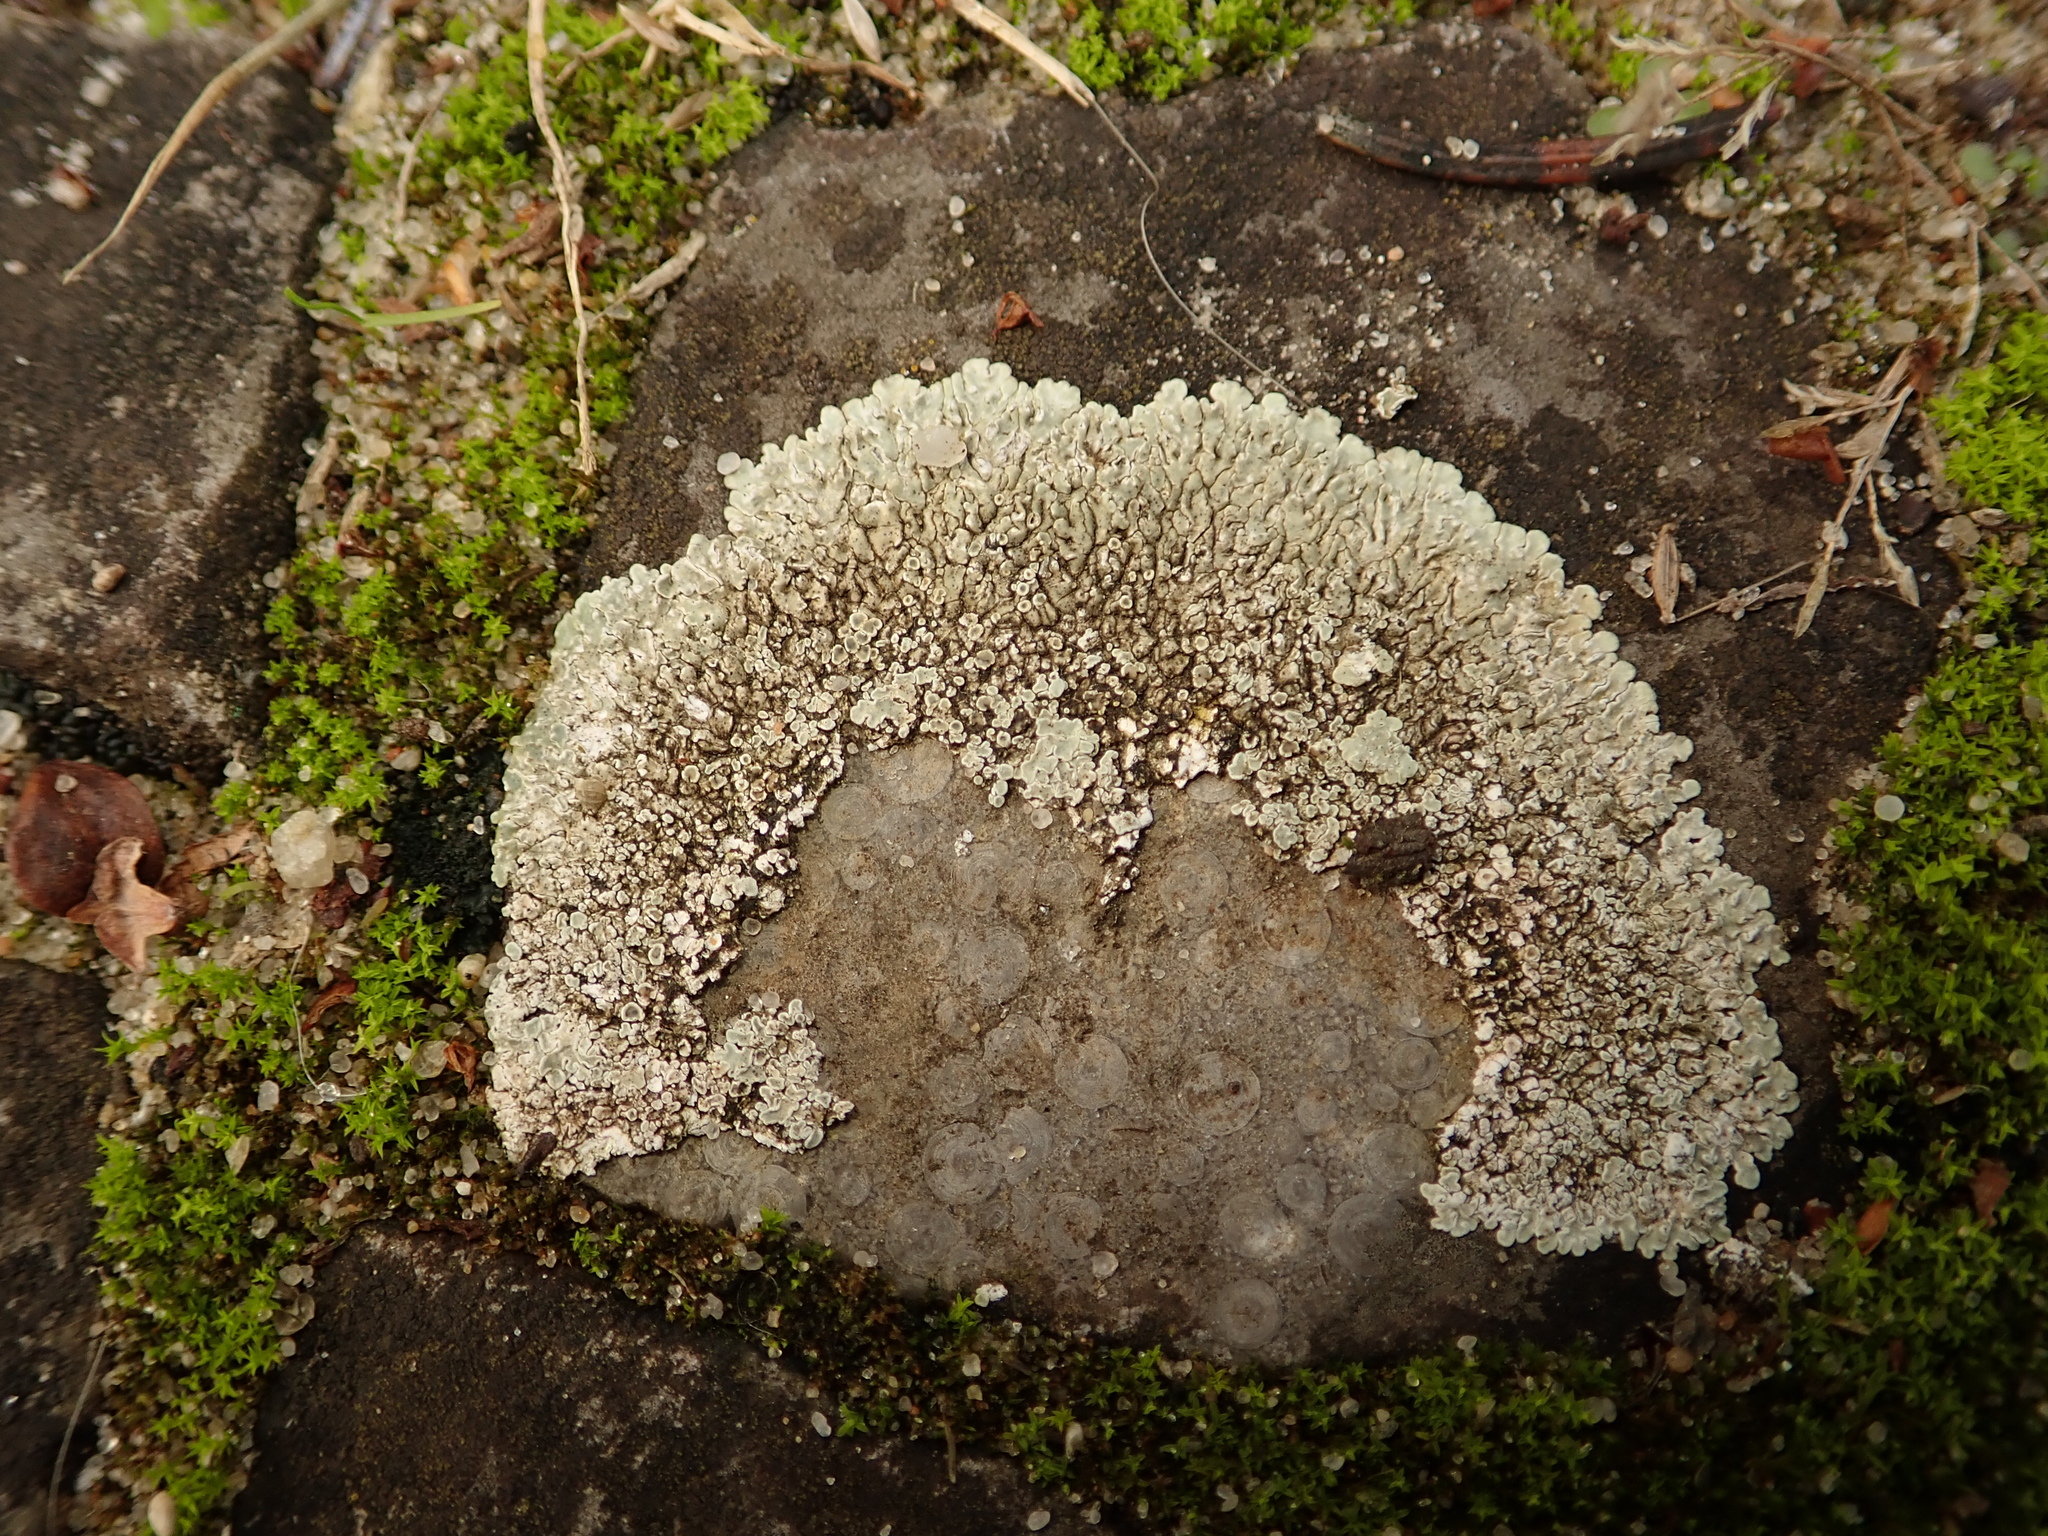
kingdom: Fungi
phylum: Ascomycota
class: Lecanoromycetes
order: Lecanorales
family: Lecanoraceae
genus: Protoparmeliopsis
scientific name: Protoparmeliopsis muralis
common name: Stonewall rim lichen
